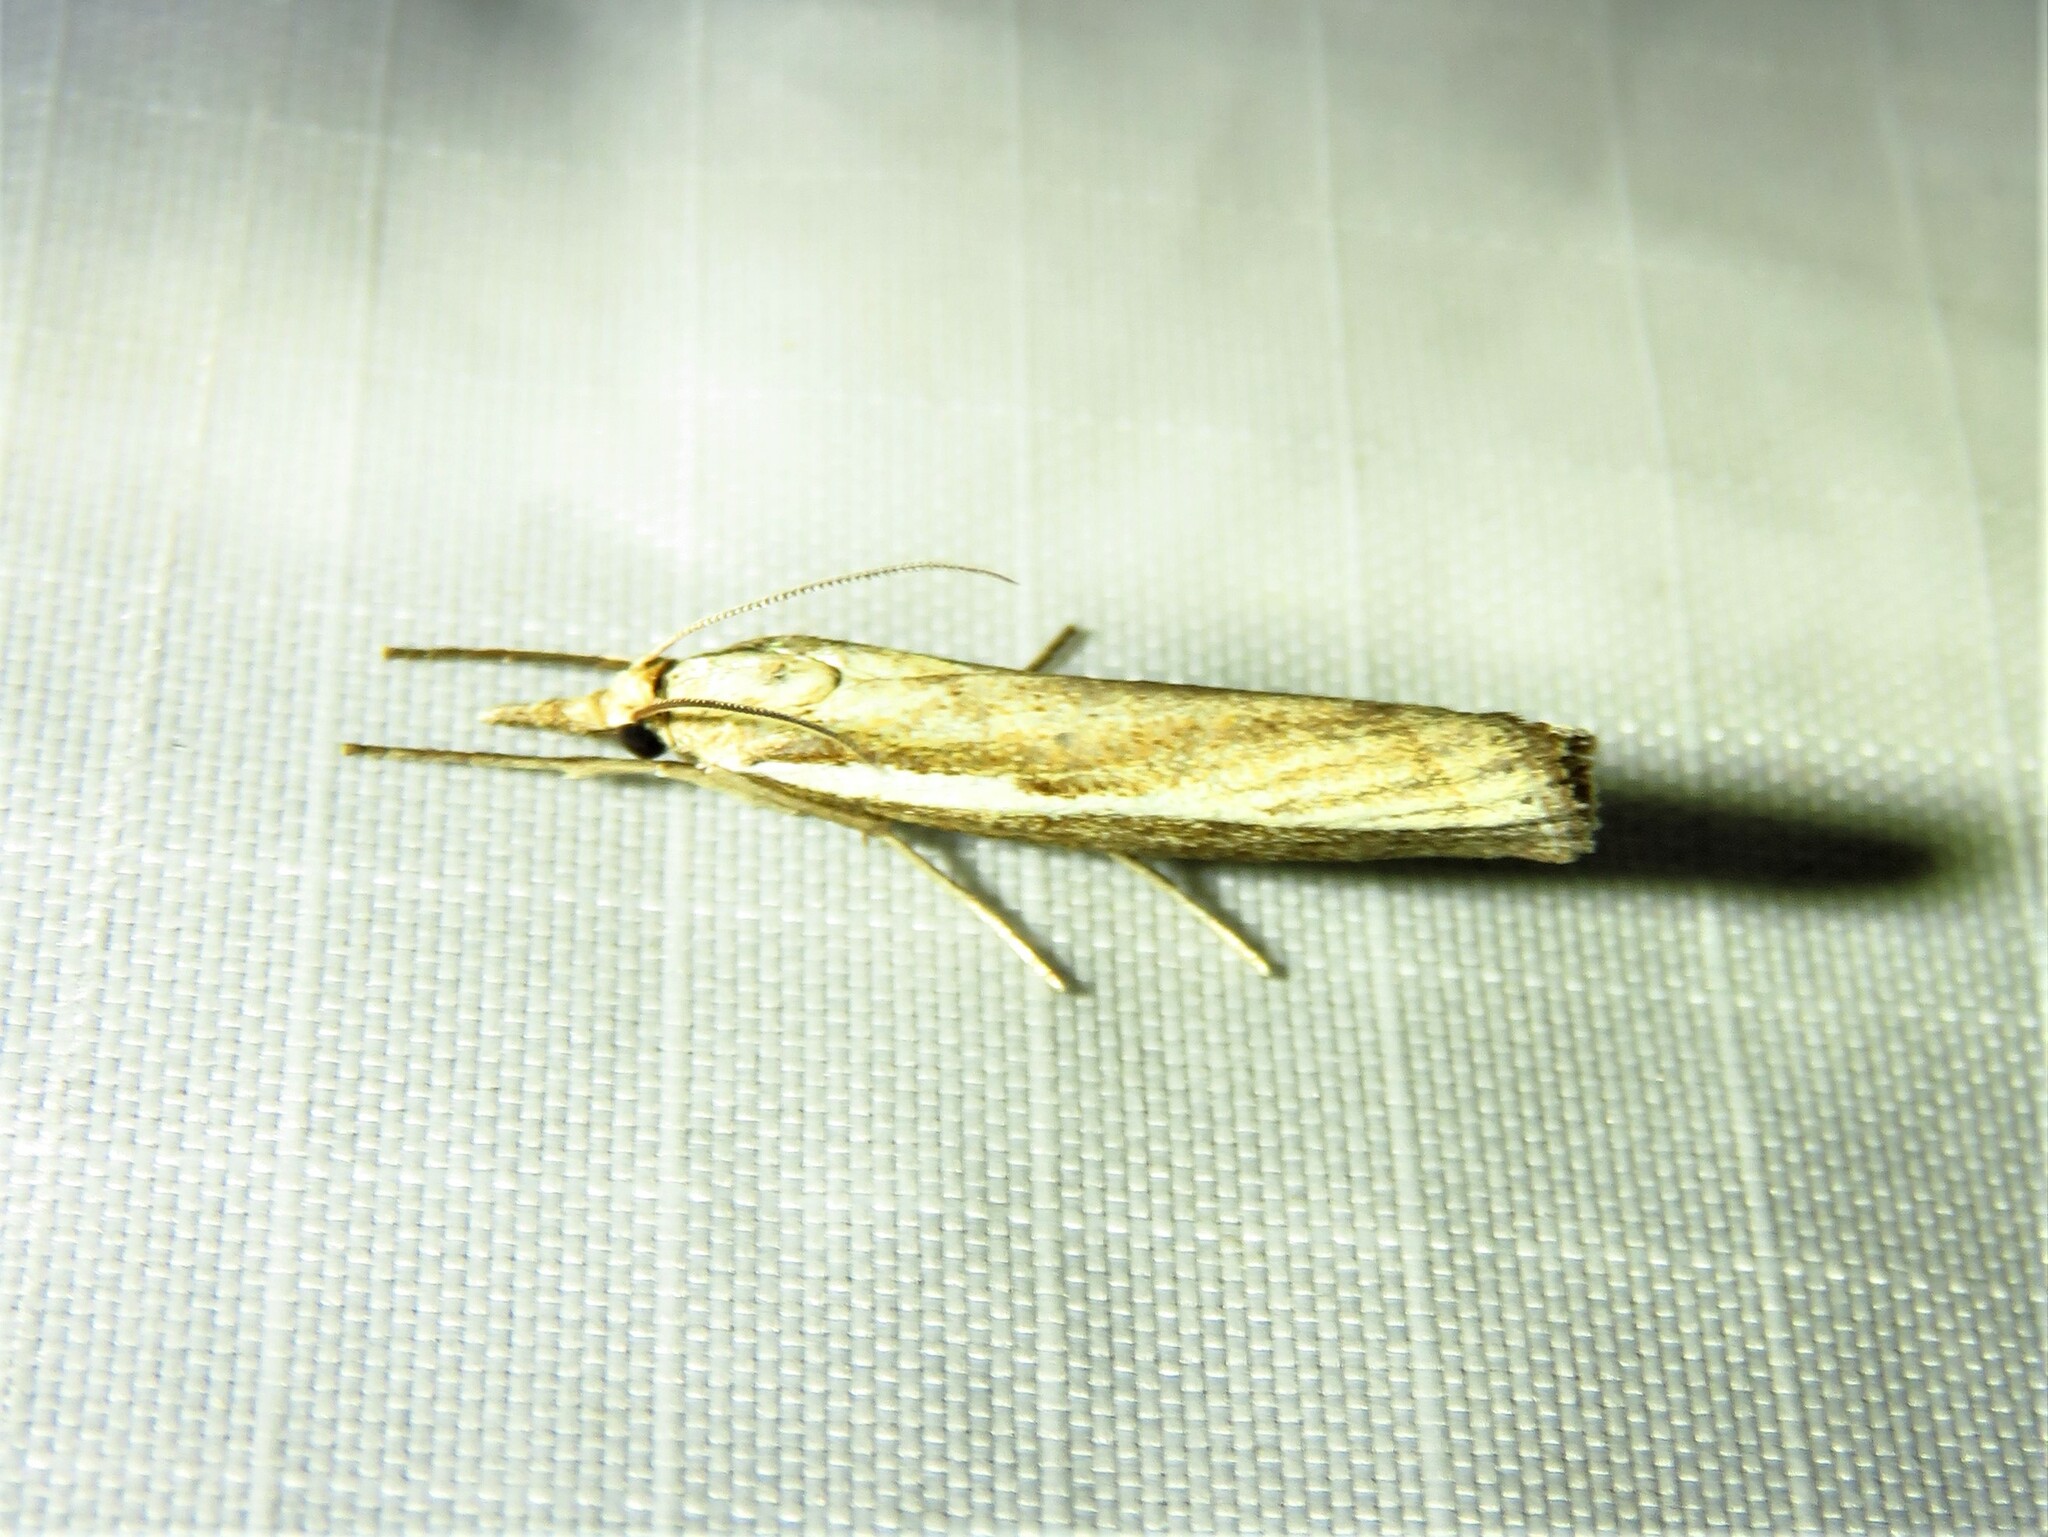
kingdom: Animalia
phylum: Arthropoda
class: Insecta
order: Lepidoptera
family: Crambidae
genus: Agriphila
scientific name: Agriphila tristellus
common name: Common grass-veneer
